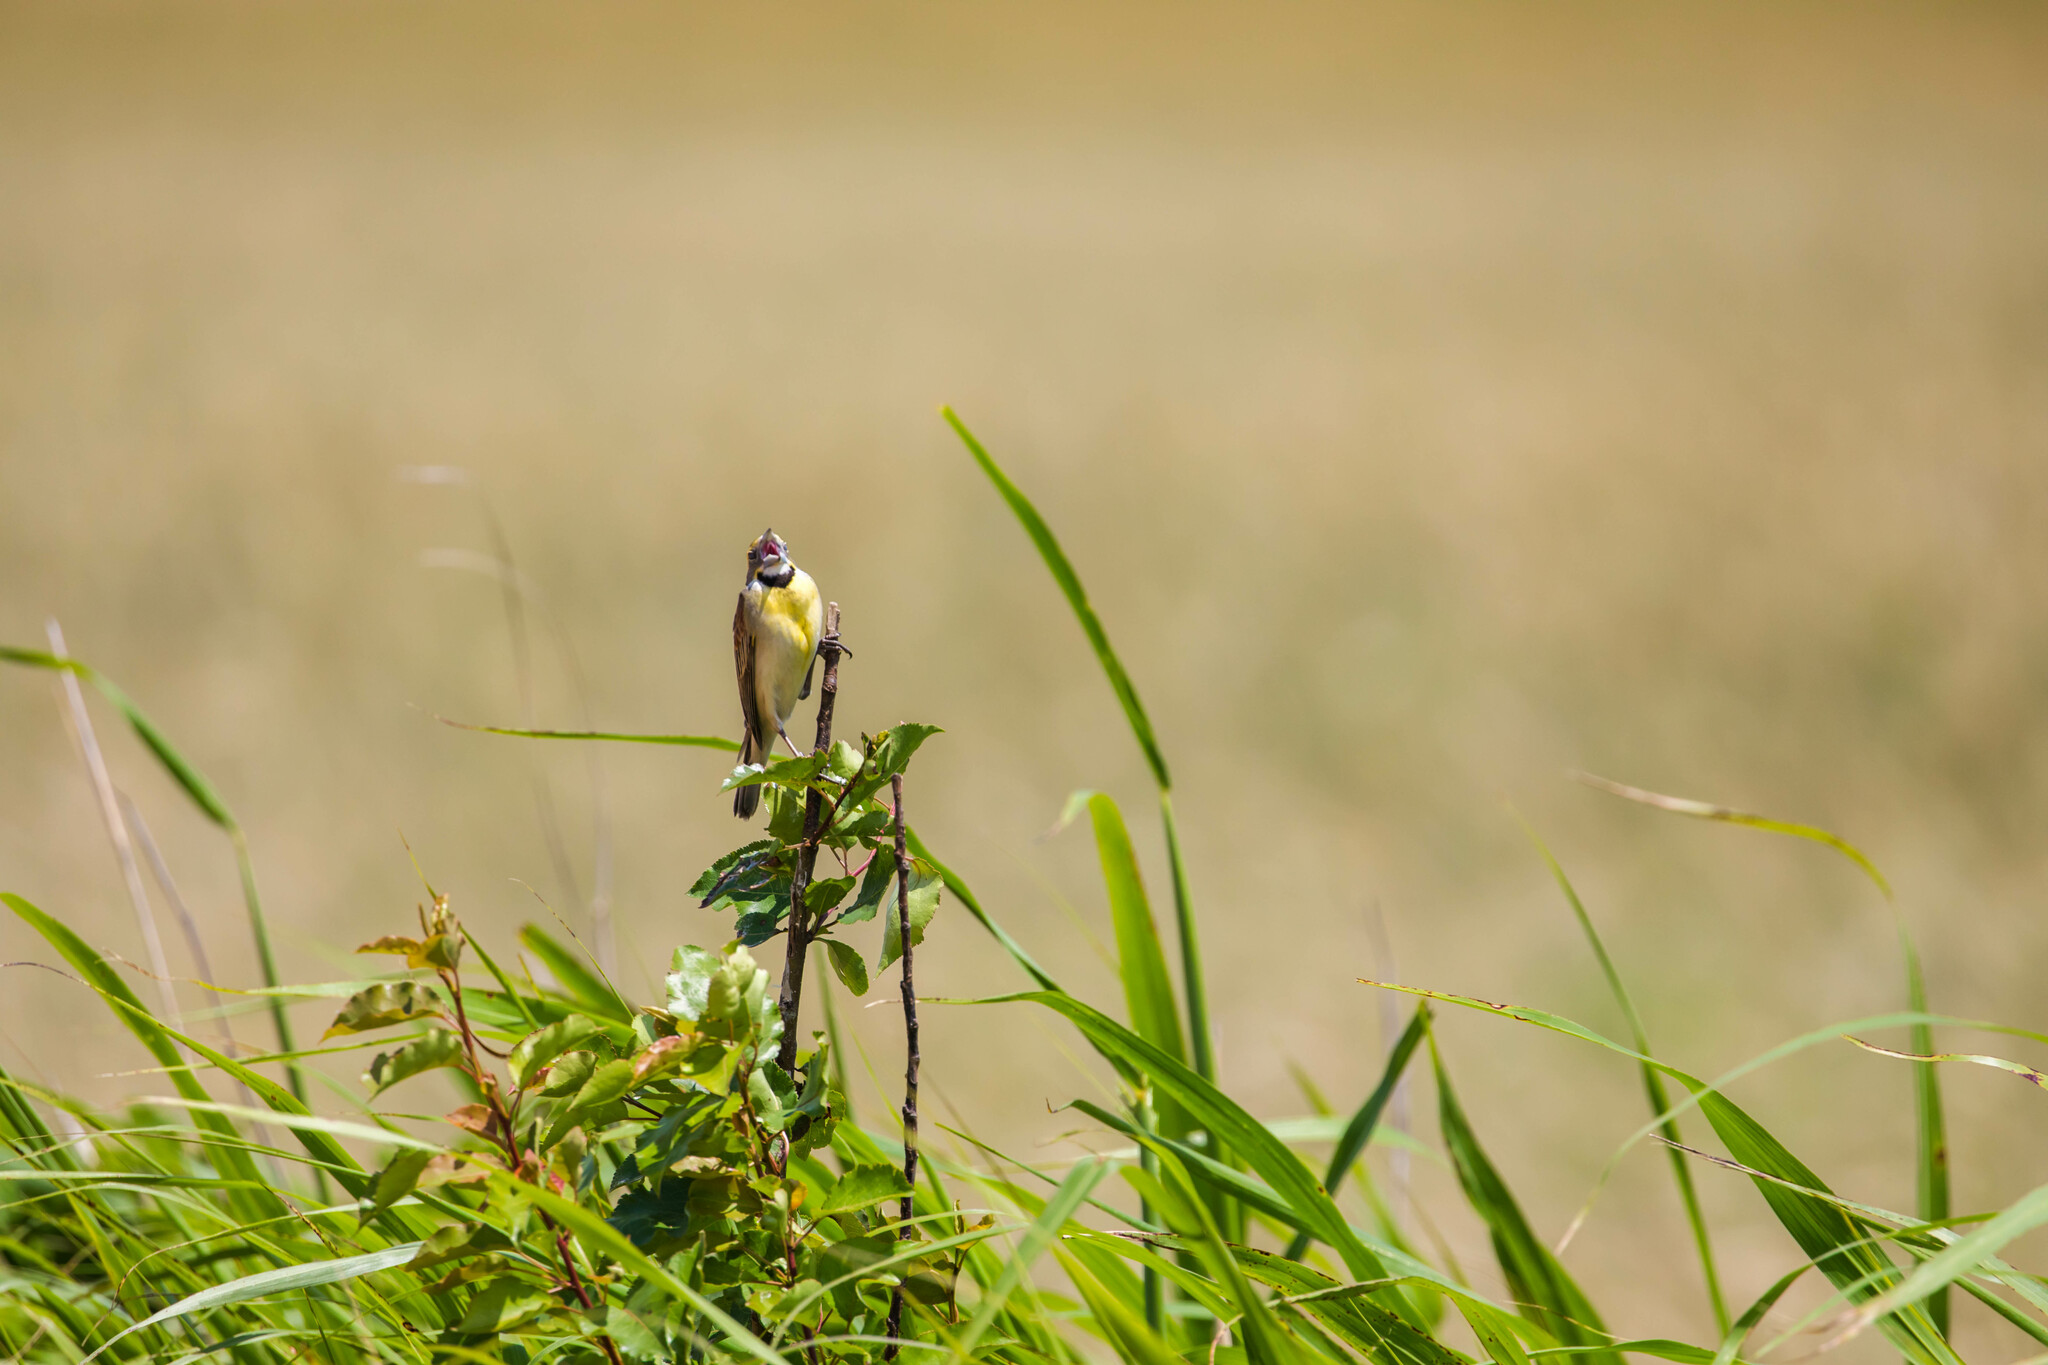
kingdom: Animalia
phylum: Chordata
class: Aves
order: Passeriformes
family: Cardinalidae
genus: Spiza
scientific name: Spiza americana
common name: Dickcissel
